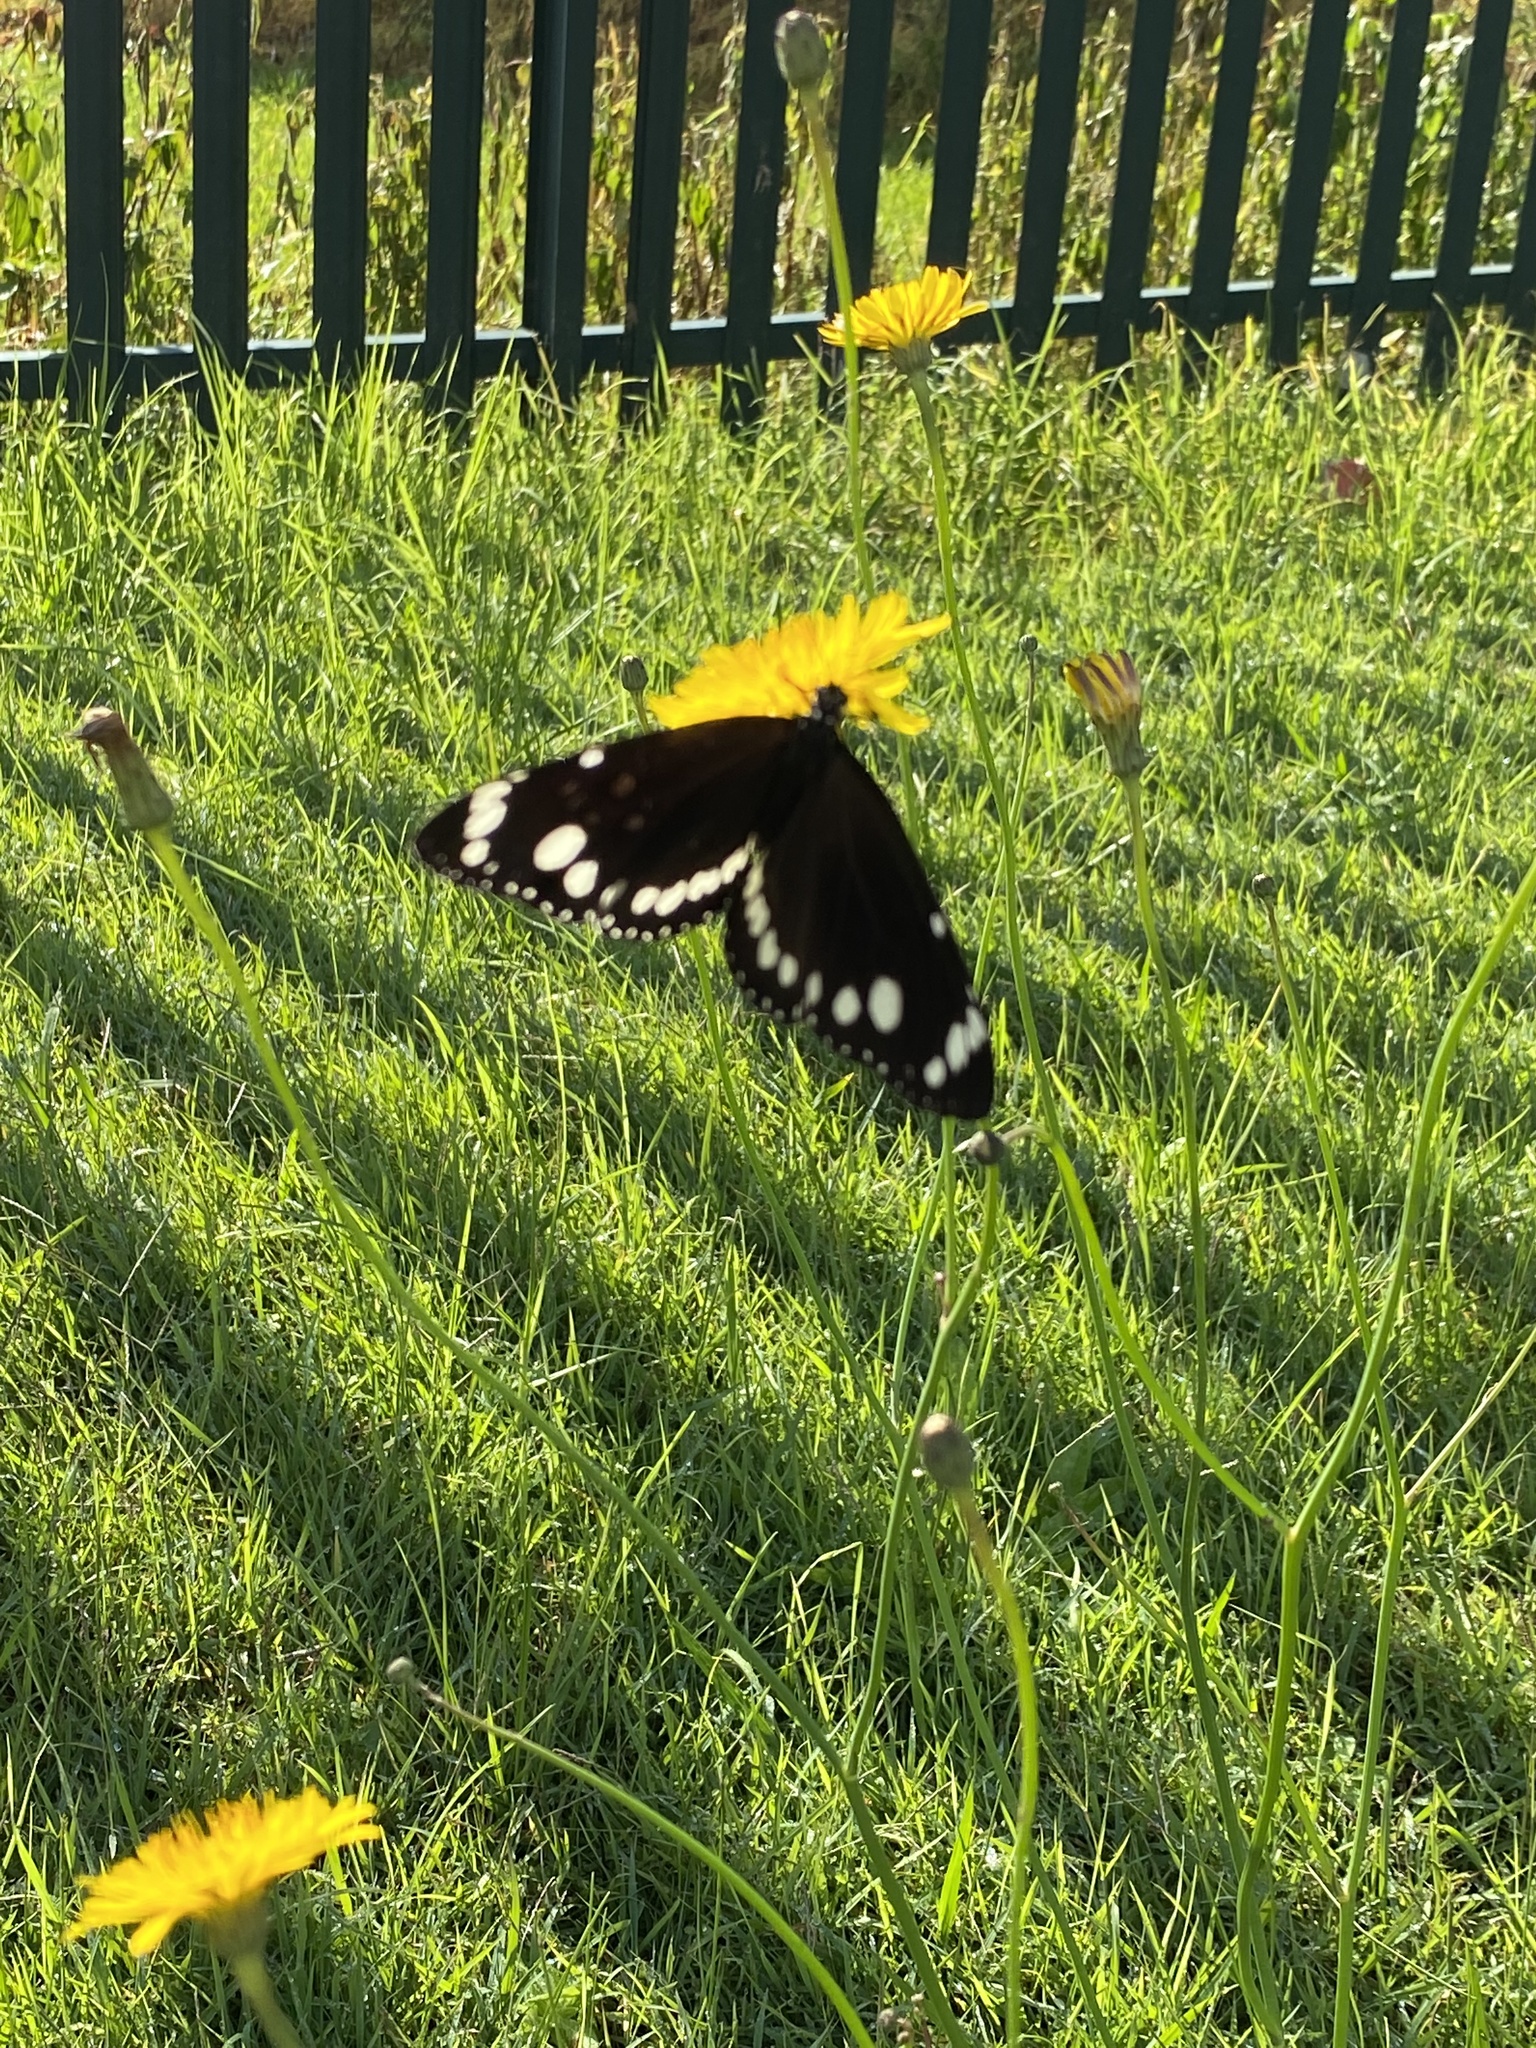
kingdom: Animalia
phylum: Arthropoda
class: Insecta
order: Lepidoptera
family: Nymphalidae
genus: Euploea
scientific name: Euploea core
